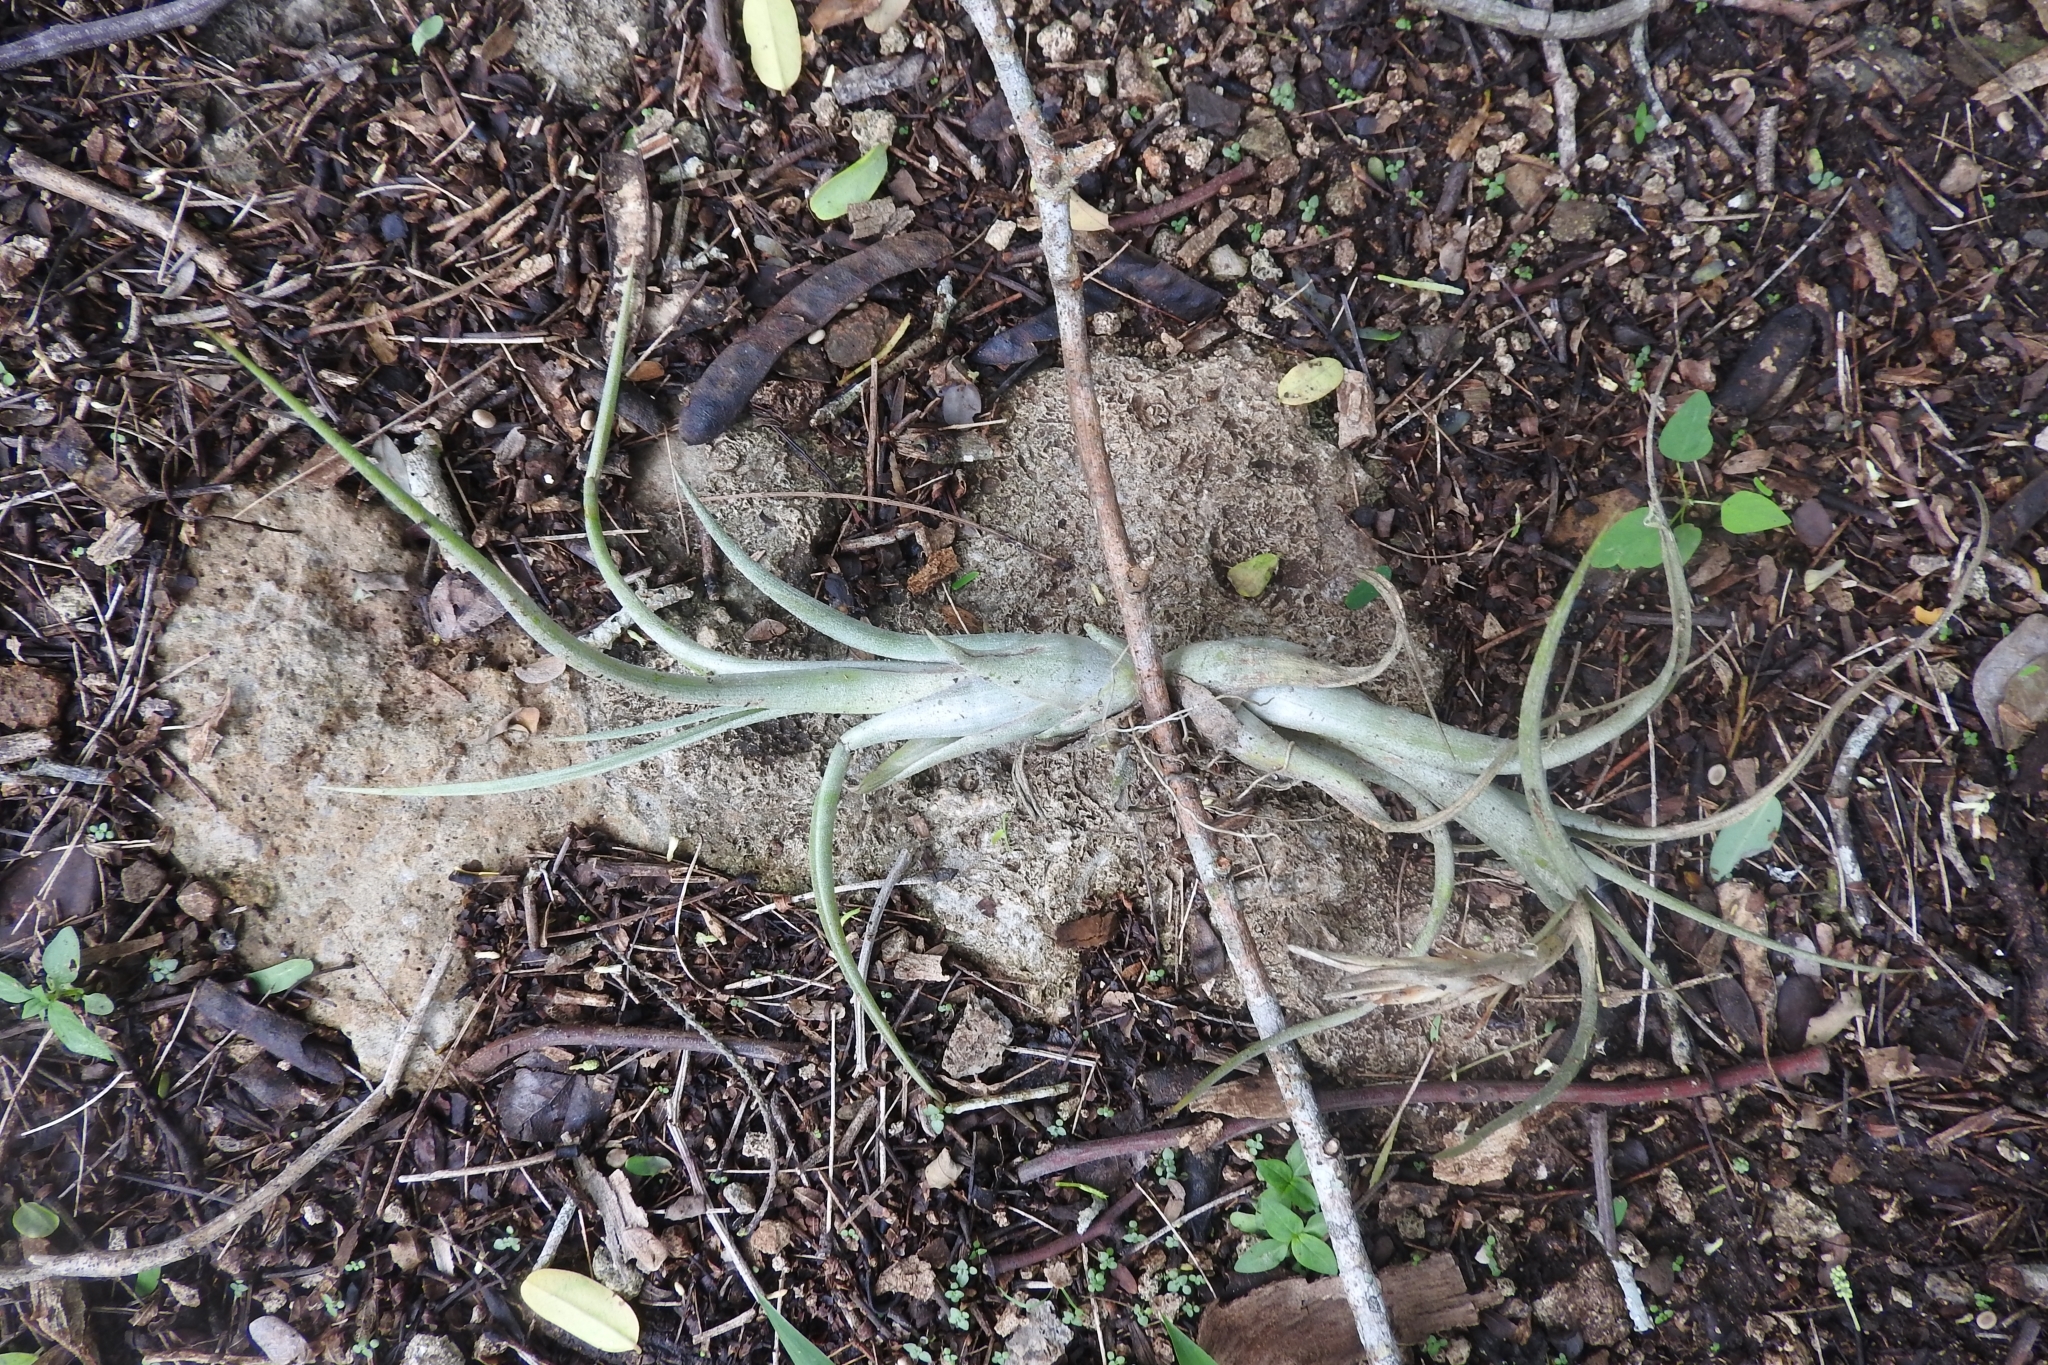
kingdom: Plantae
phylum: Tracheophyta
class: Liliopsida
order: Poales
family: Bromeliaceae
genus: Tillandsia
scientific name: Tillandsia paucifolia
